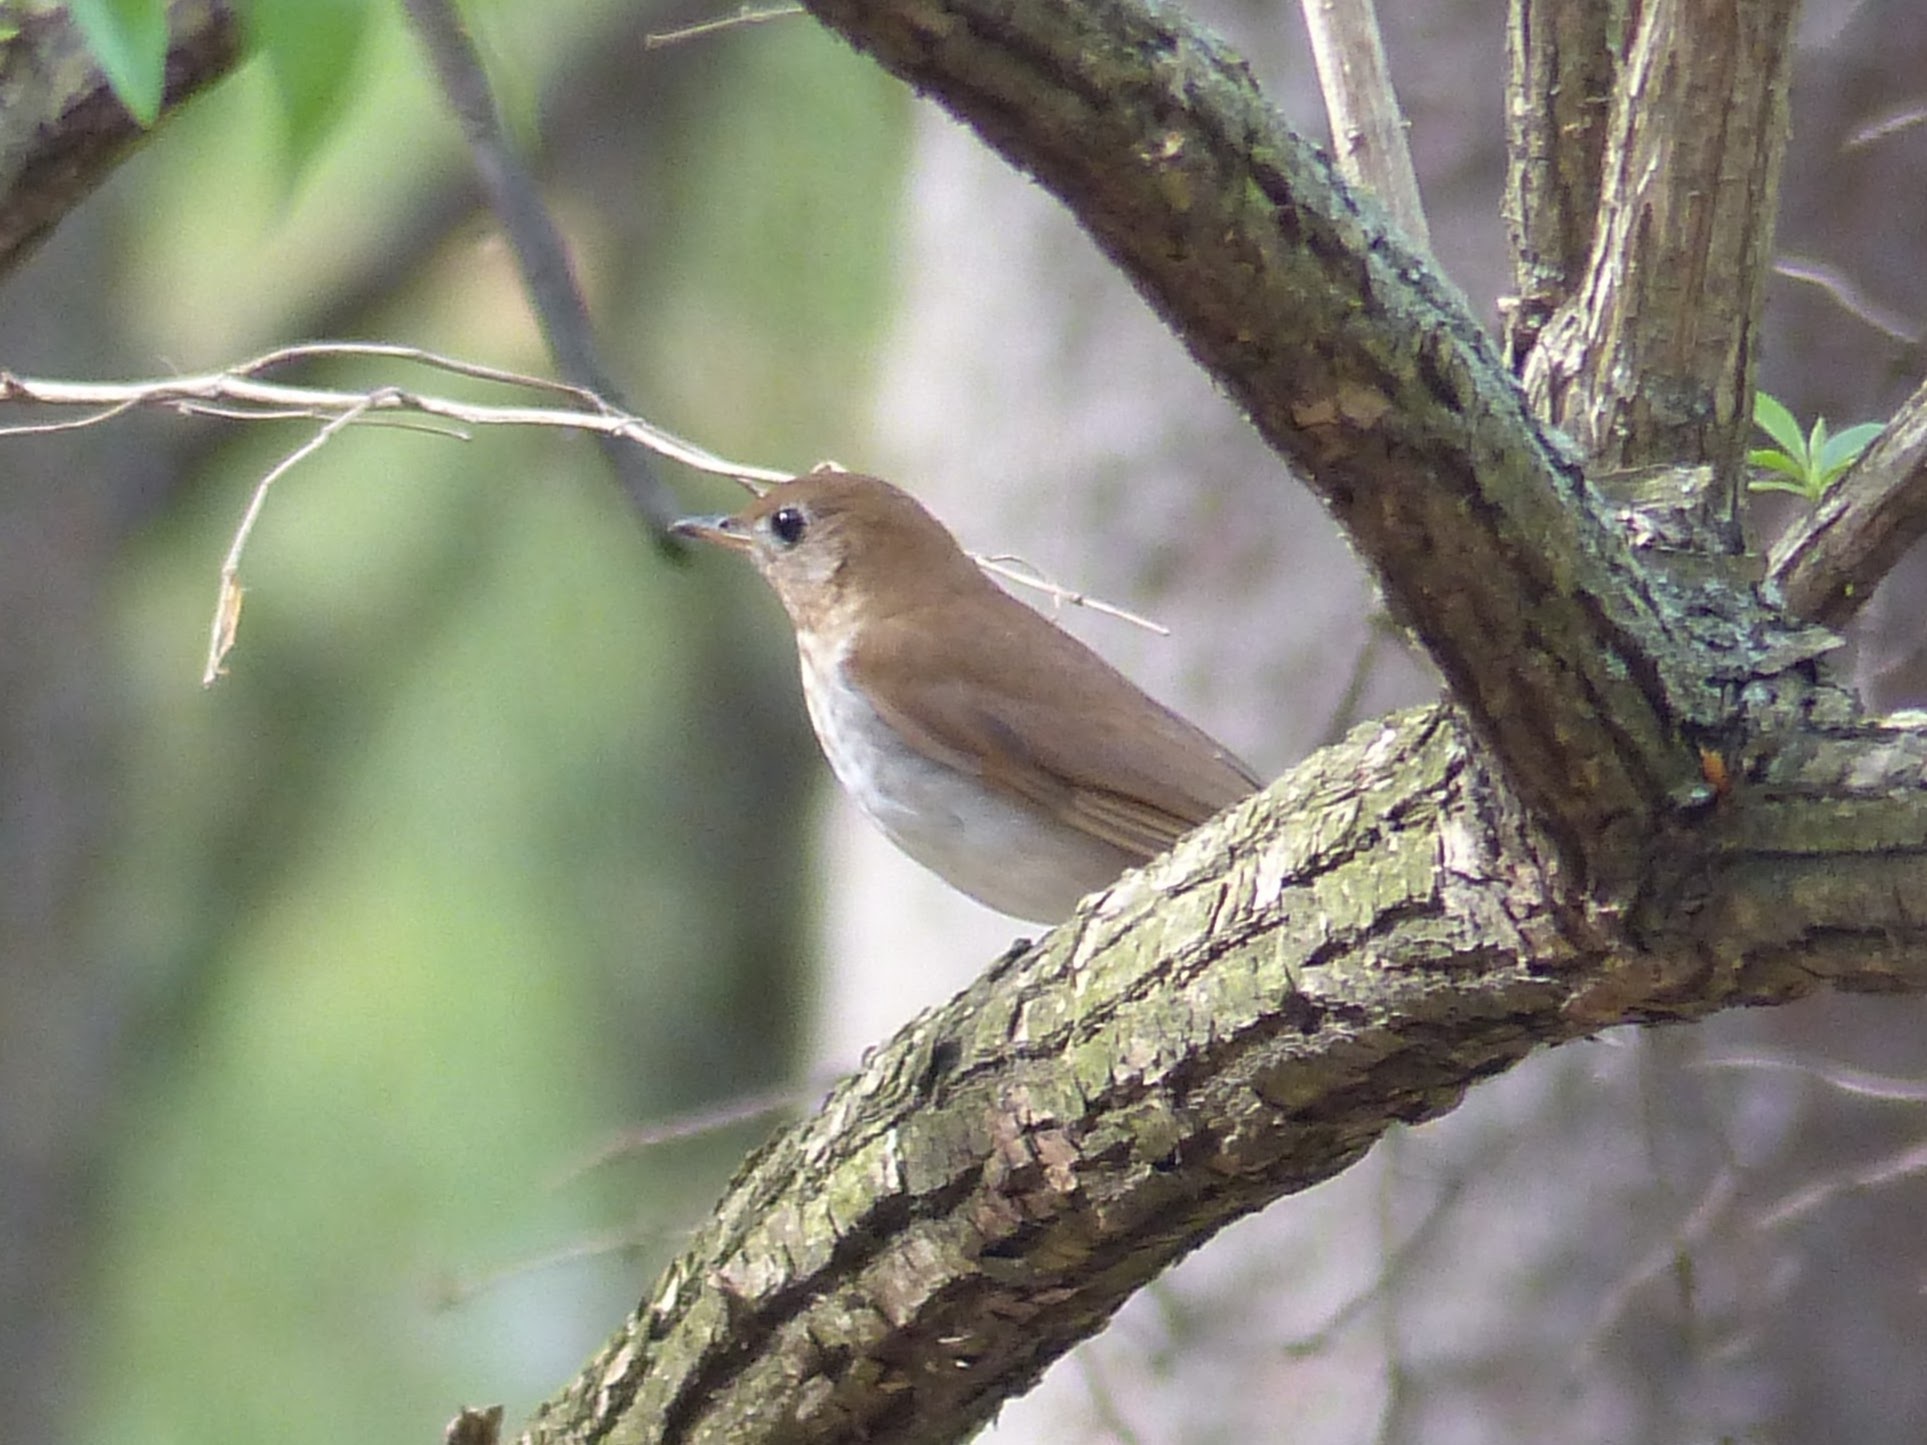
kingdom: Animalia
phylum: Chordata
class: Aves
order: Passeriformes
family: Turdidae
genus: Catharus
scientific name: Catharus fuscescens
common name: Veery
